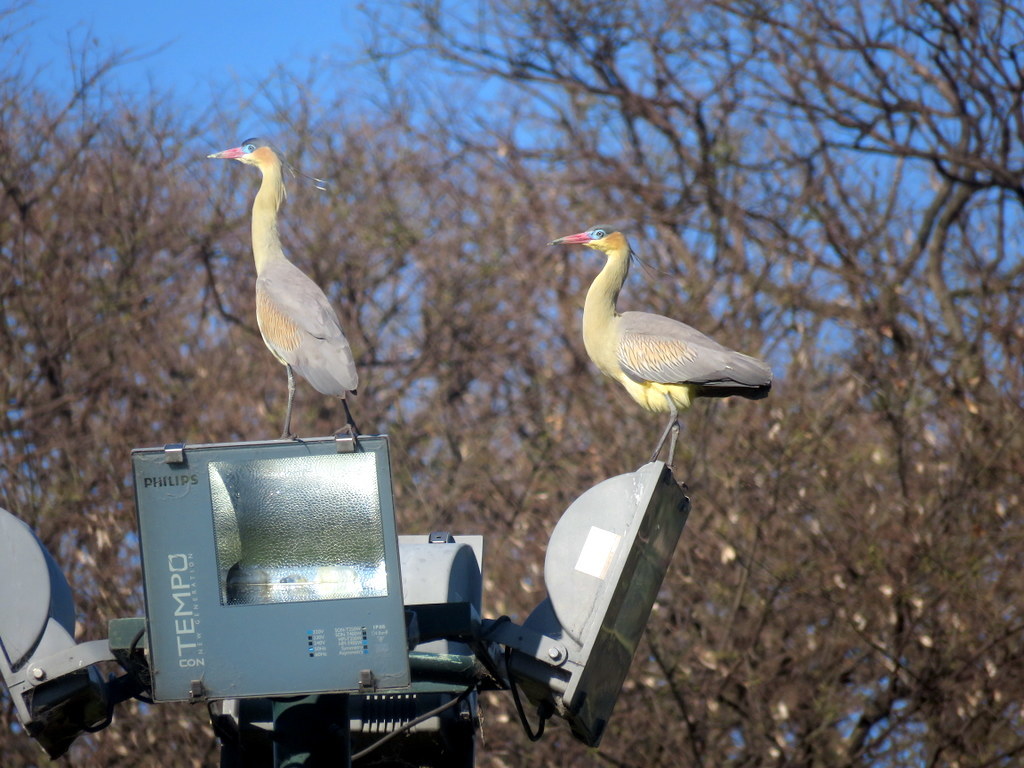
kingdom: Animalia
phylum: Chordata
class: Aves
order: Pelecaniformes
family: Ardeidae
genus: Syrigma
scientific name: Syrigma sibilatrix
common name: Whistling heron
